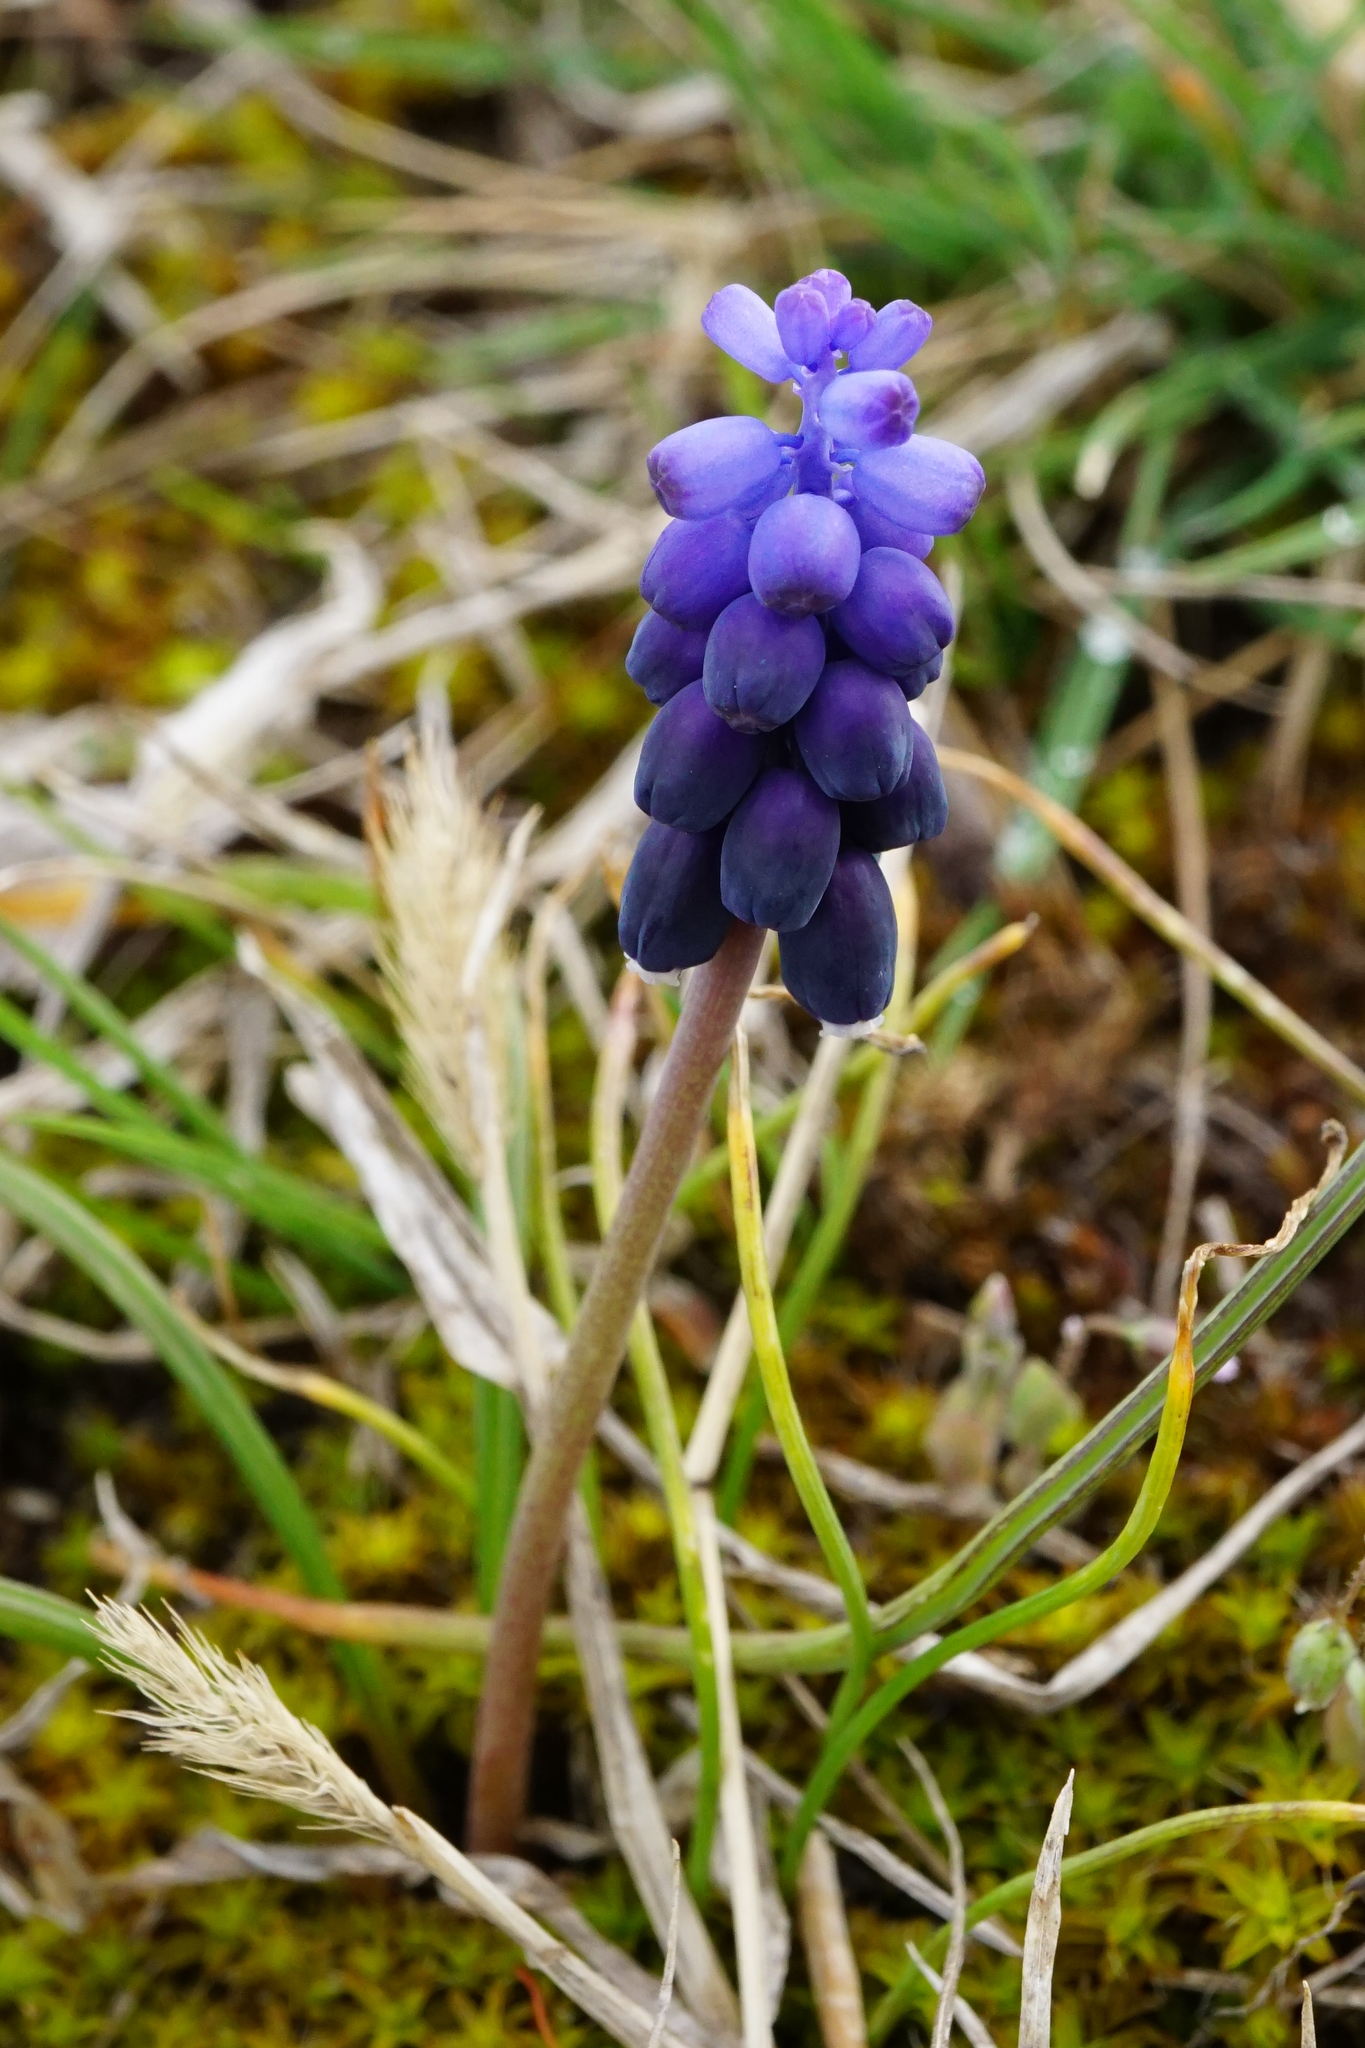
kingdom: Plantae
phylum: Tracheophyta
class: Liliopsida
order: Asparagales
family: Asparagaceae
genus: Muscari
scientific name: Muscari neglectum
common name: Grape-hyacinth
